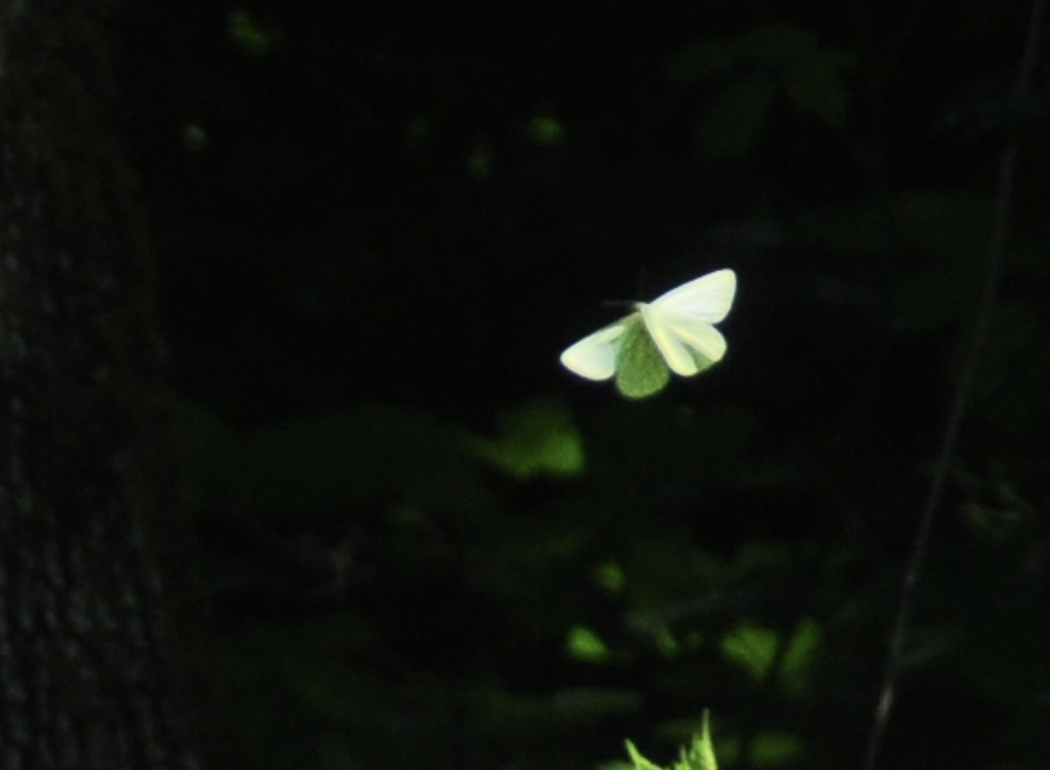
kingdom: Animalia
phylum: Arthropoda
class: Insecta
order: Lepidoptera
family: Pieridae
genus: Pieris
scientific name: Pieris marginalis
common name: Margined white
